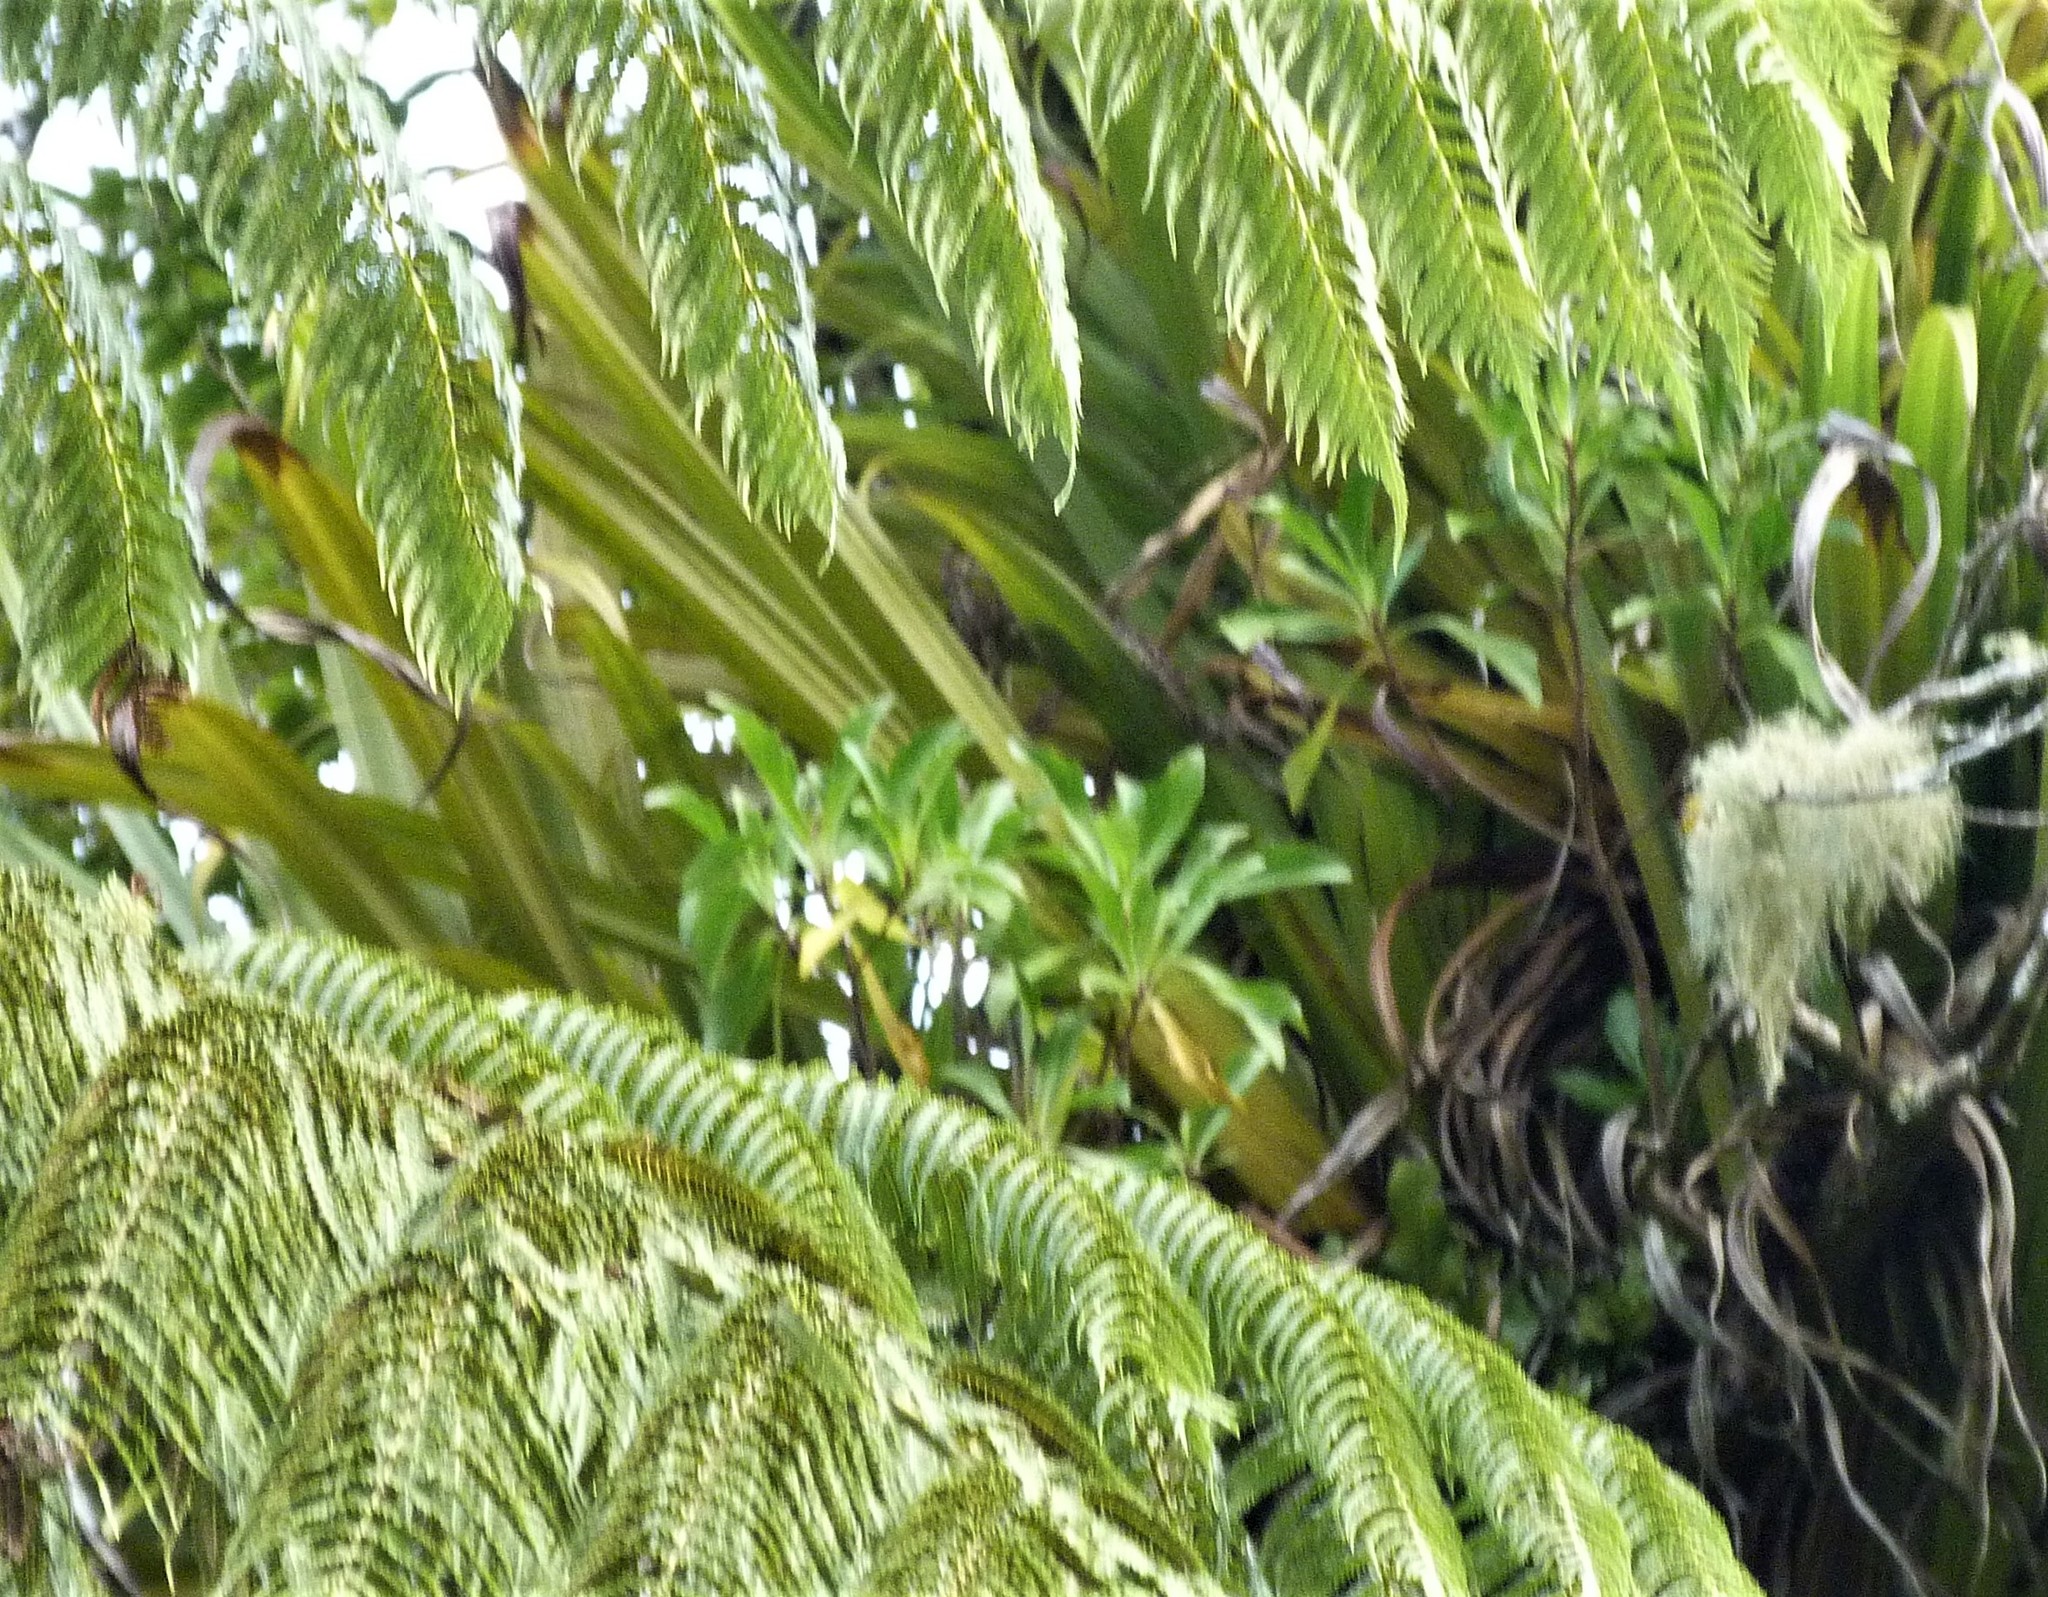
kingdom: Plantae
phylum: Tracheophyta
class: Magnoliopsida
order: Asterales
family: Asteraceae
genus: Brachyglottis
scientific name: Brachyglottis kirkii
